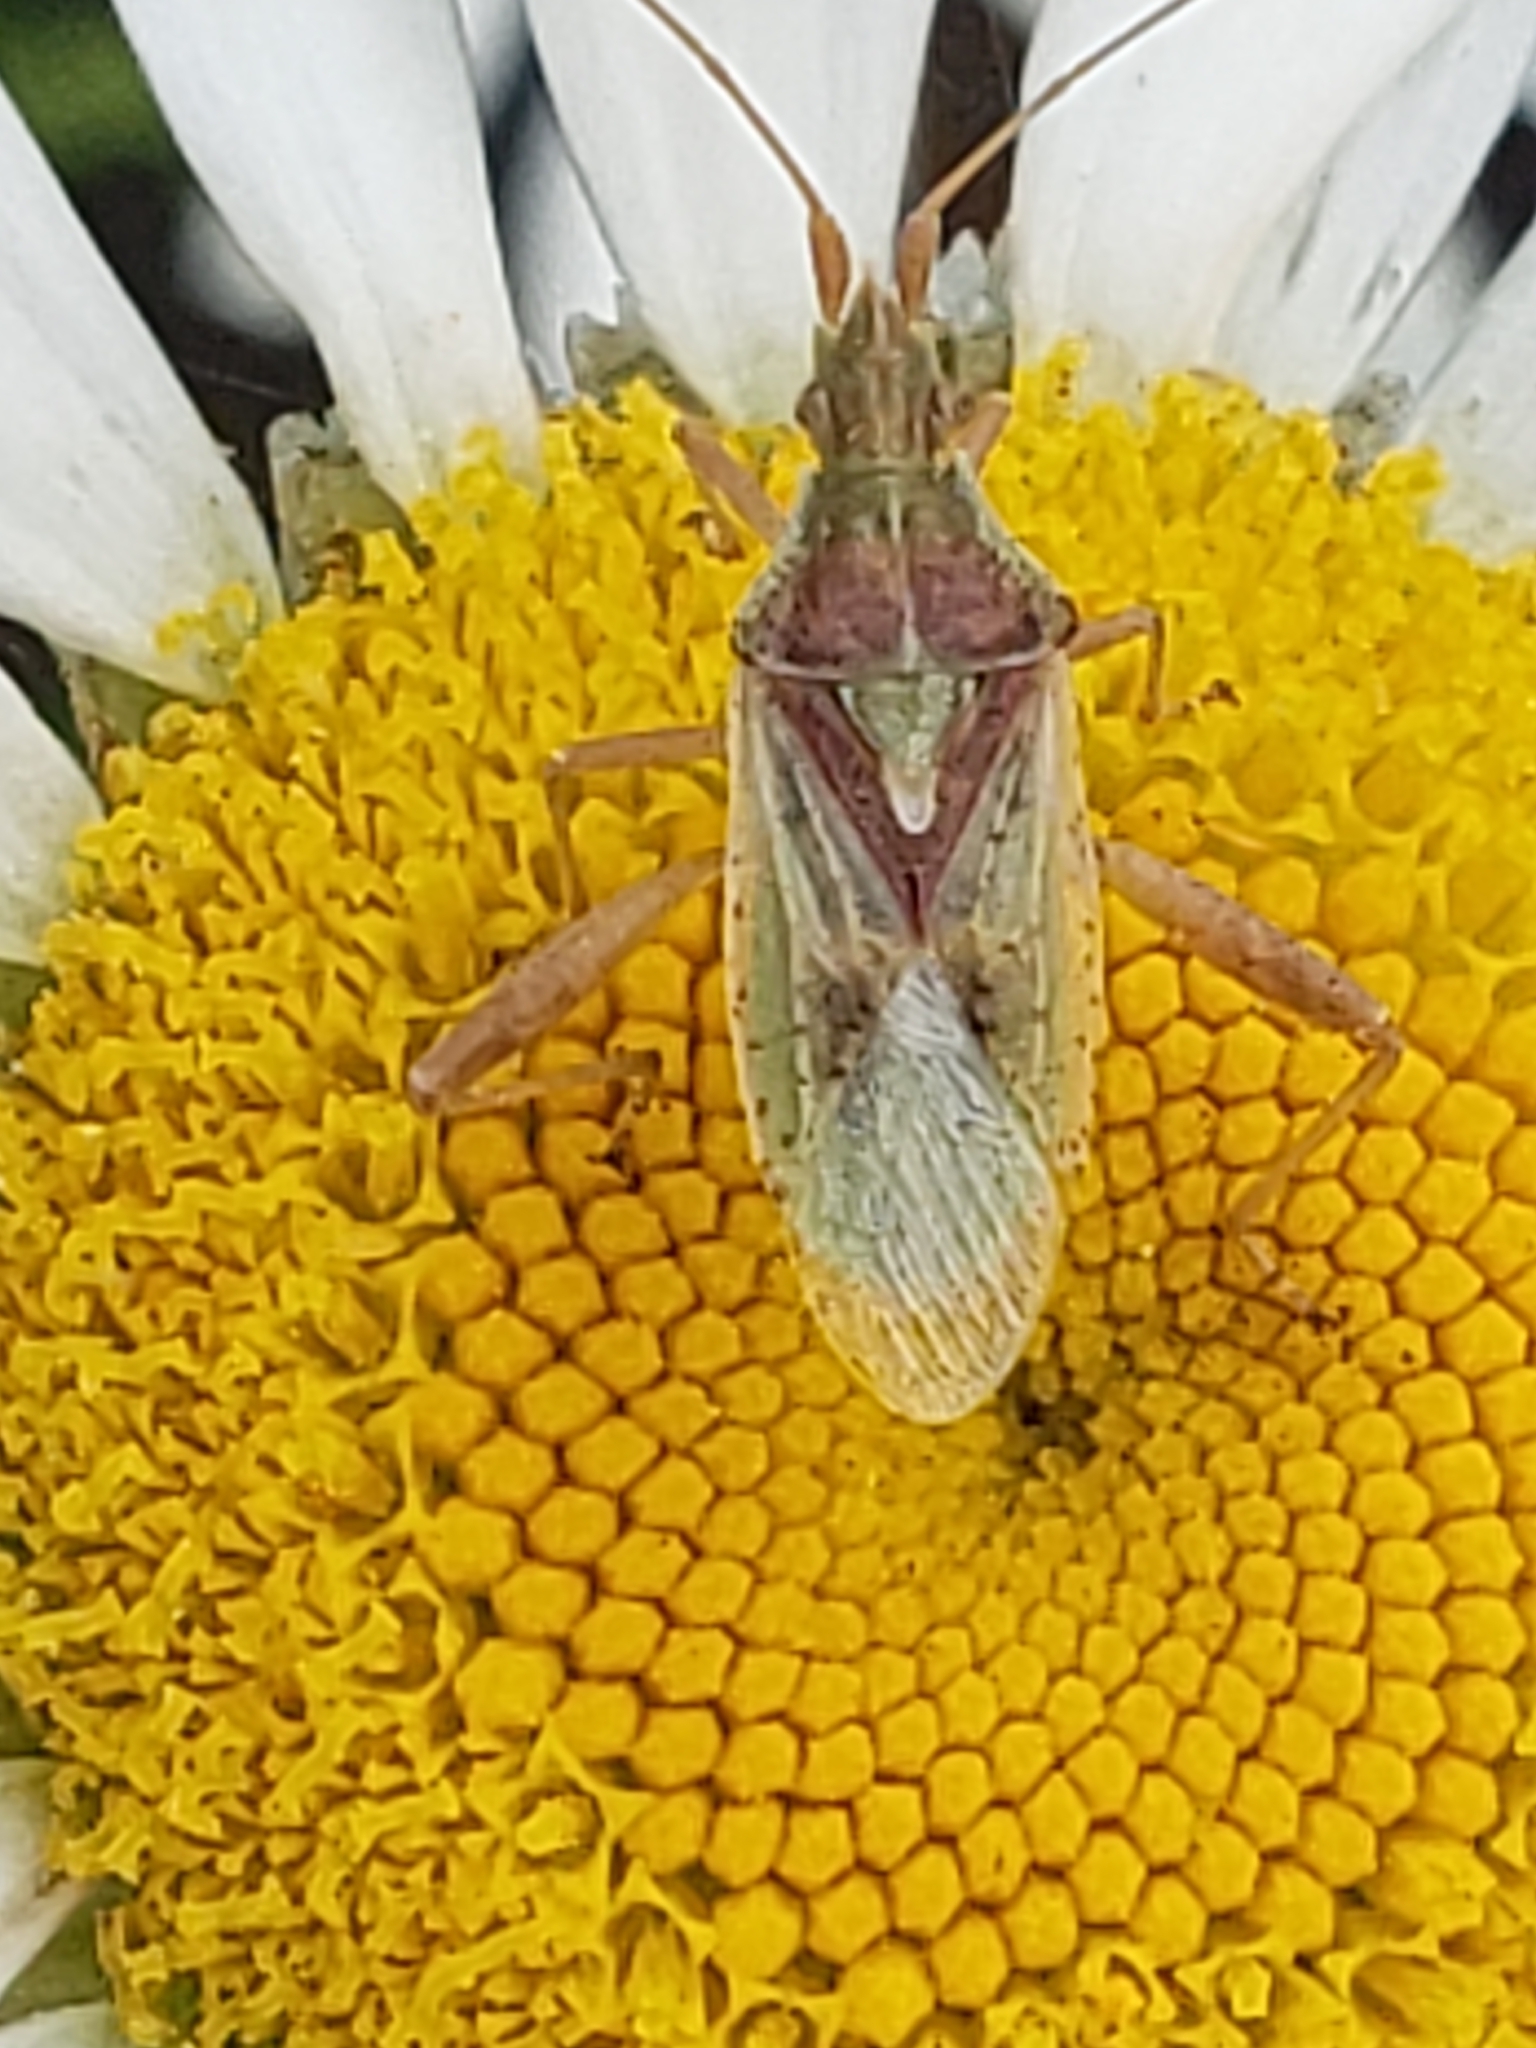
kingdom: Animalia
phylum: Arthropoda
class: Insecta
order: Hemiptera
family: Rhopalidae
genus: Harmostes
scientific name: Harmostes reflexulus
